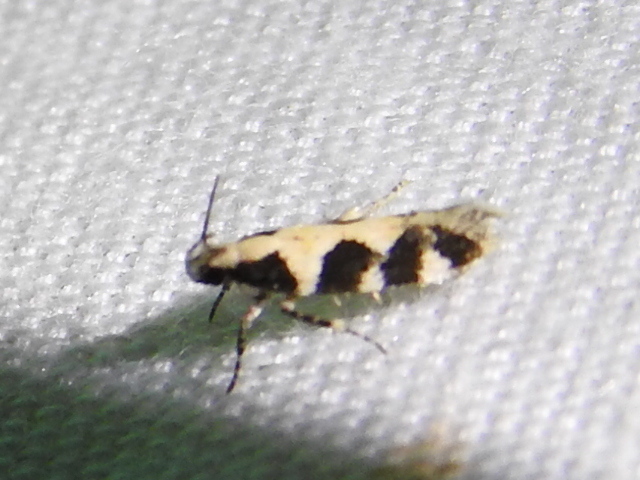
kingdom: Animalia
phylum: Arthropoda
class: Insecta
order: Lepidoptera
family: Gelechiidae
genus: Stegasta
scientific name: Stegasta capitella
